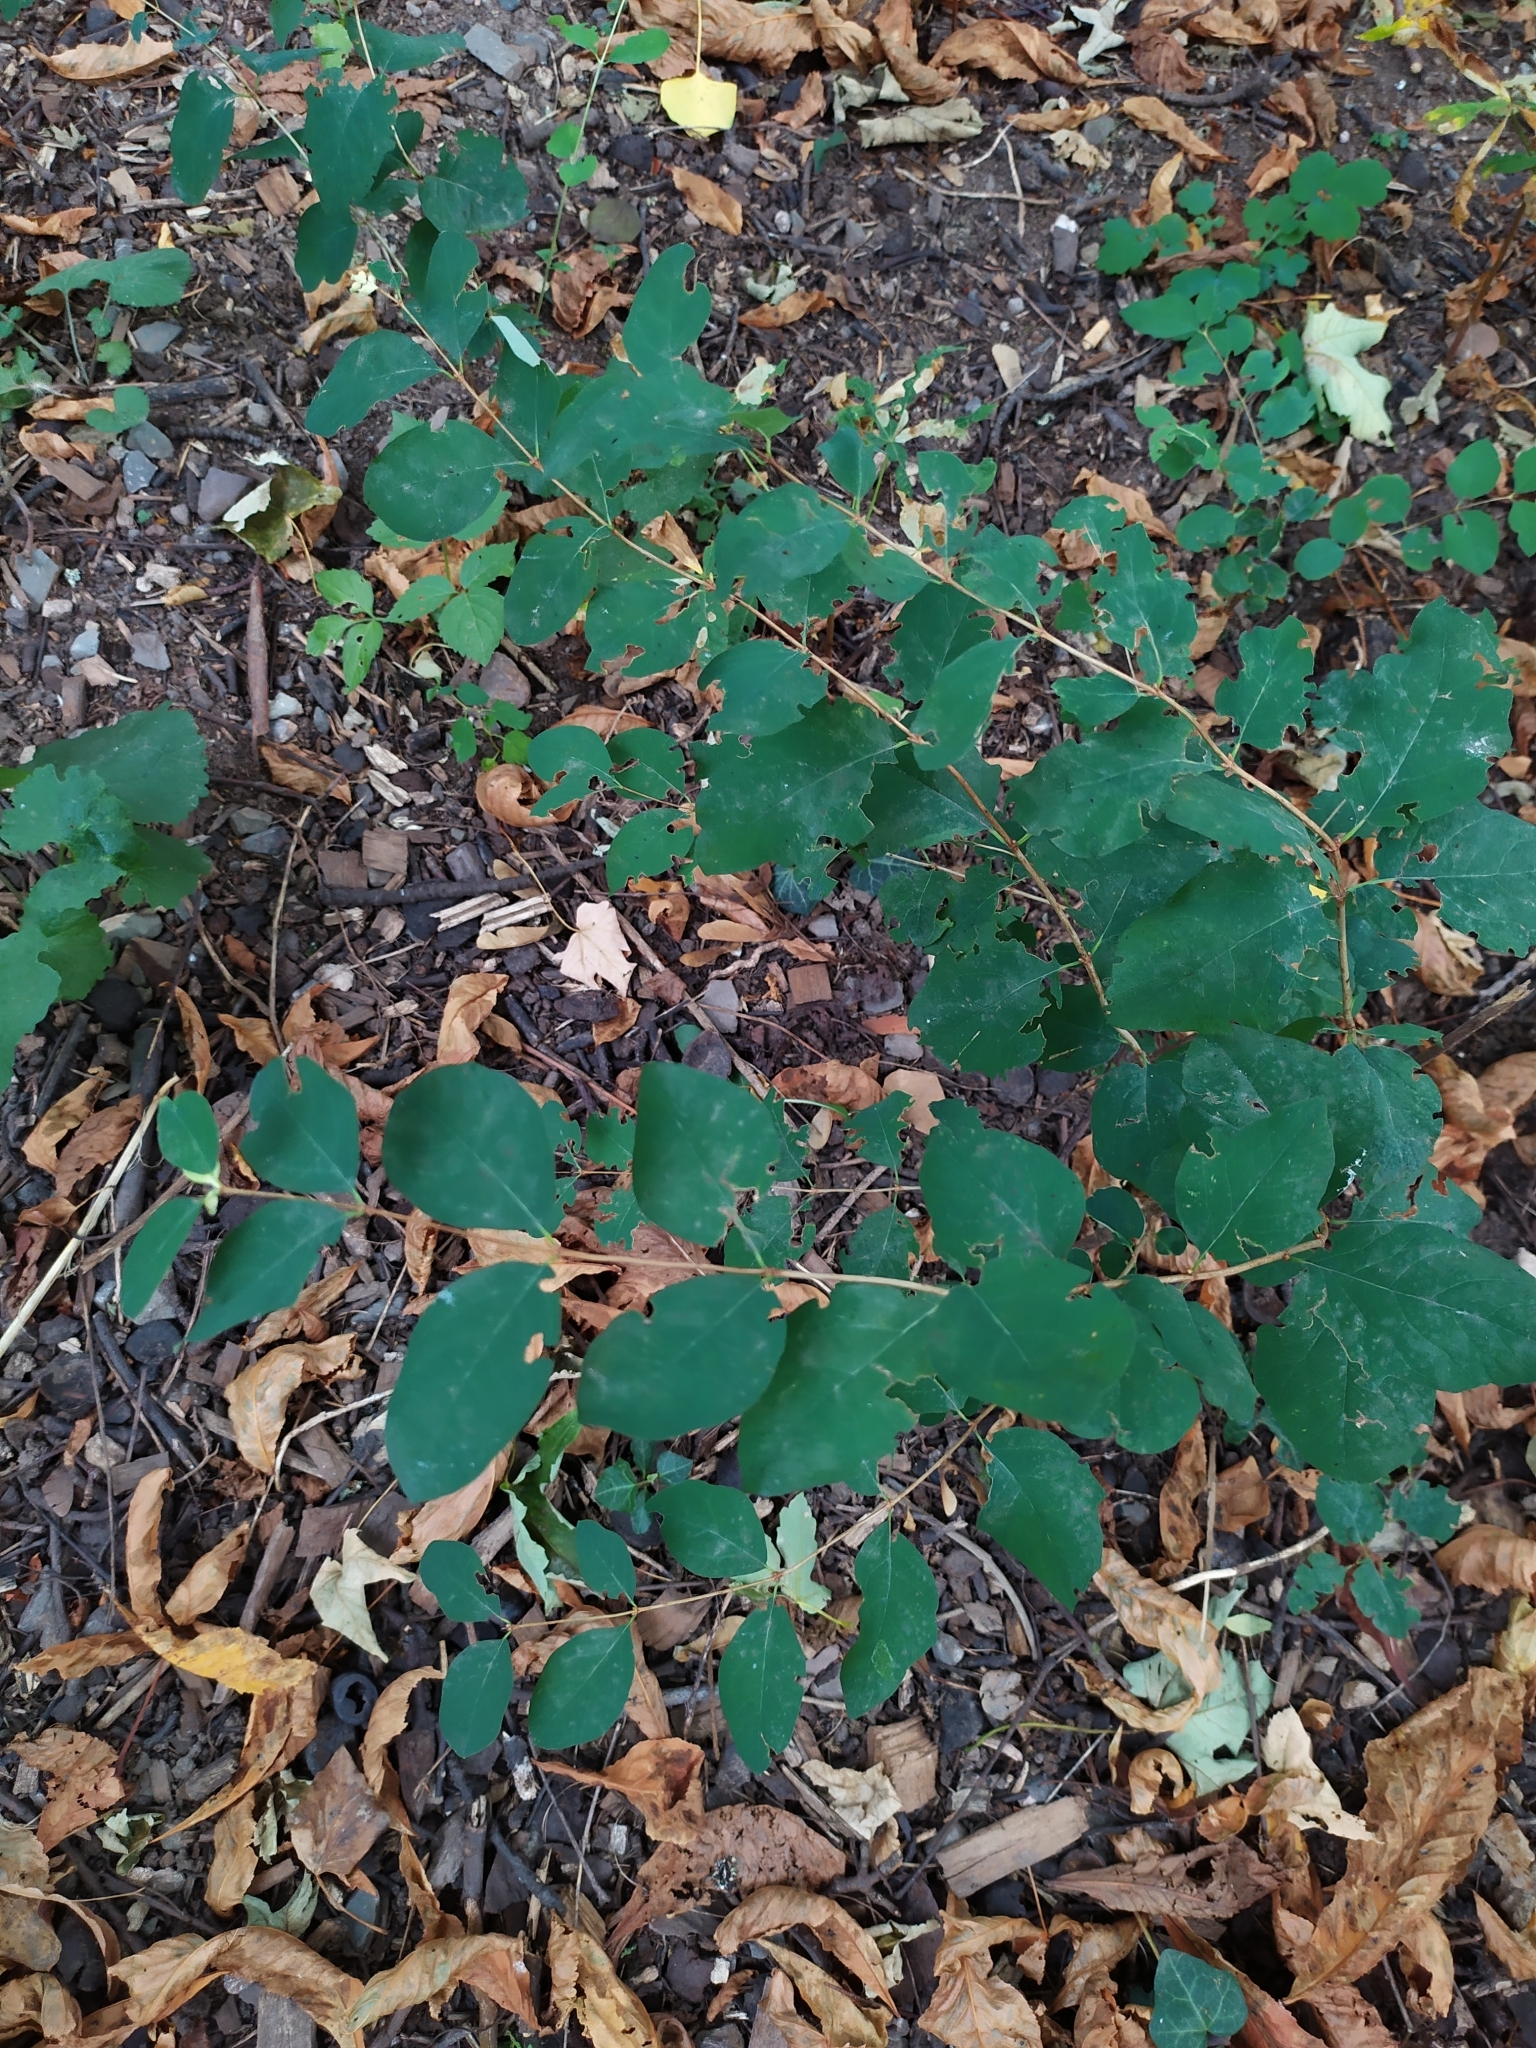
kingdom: Plantae
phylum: Tracheophyta
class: Magnoliopsida
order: Dipsacales
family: Caprifoliaceae
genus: Symphoricarpos
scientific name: Symphoricarpos albus
